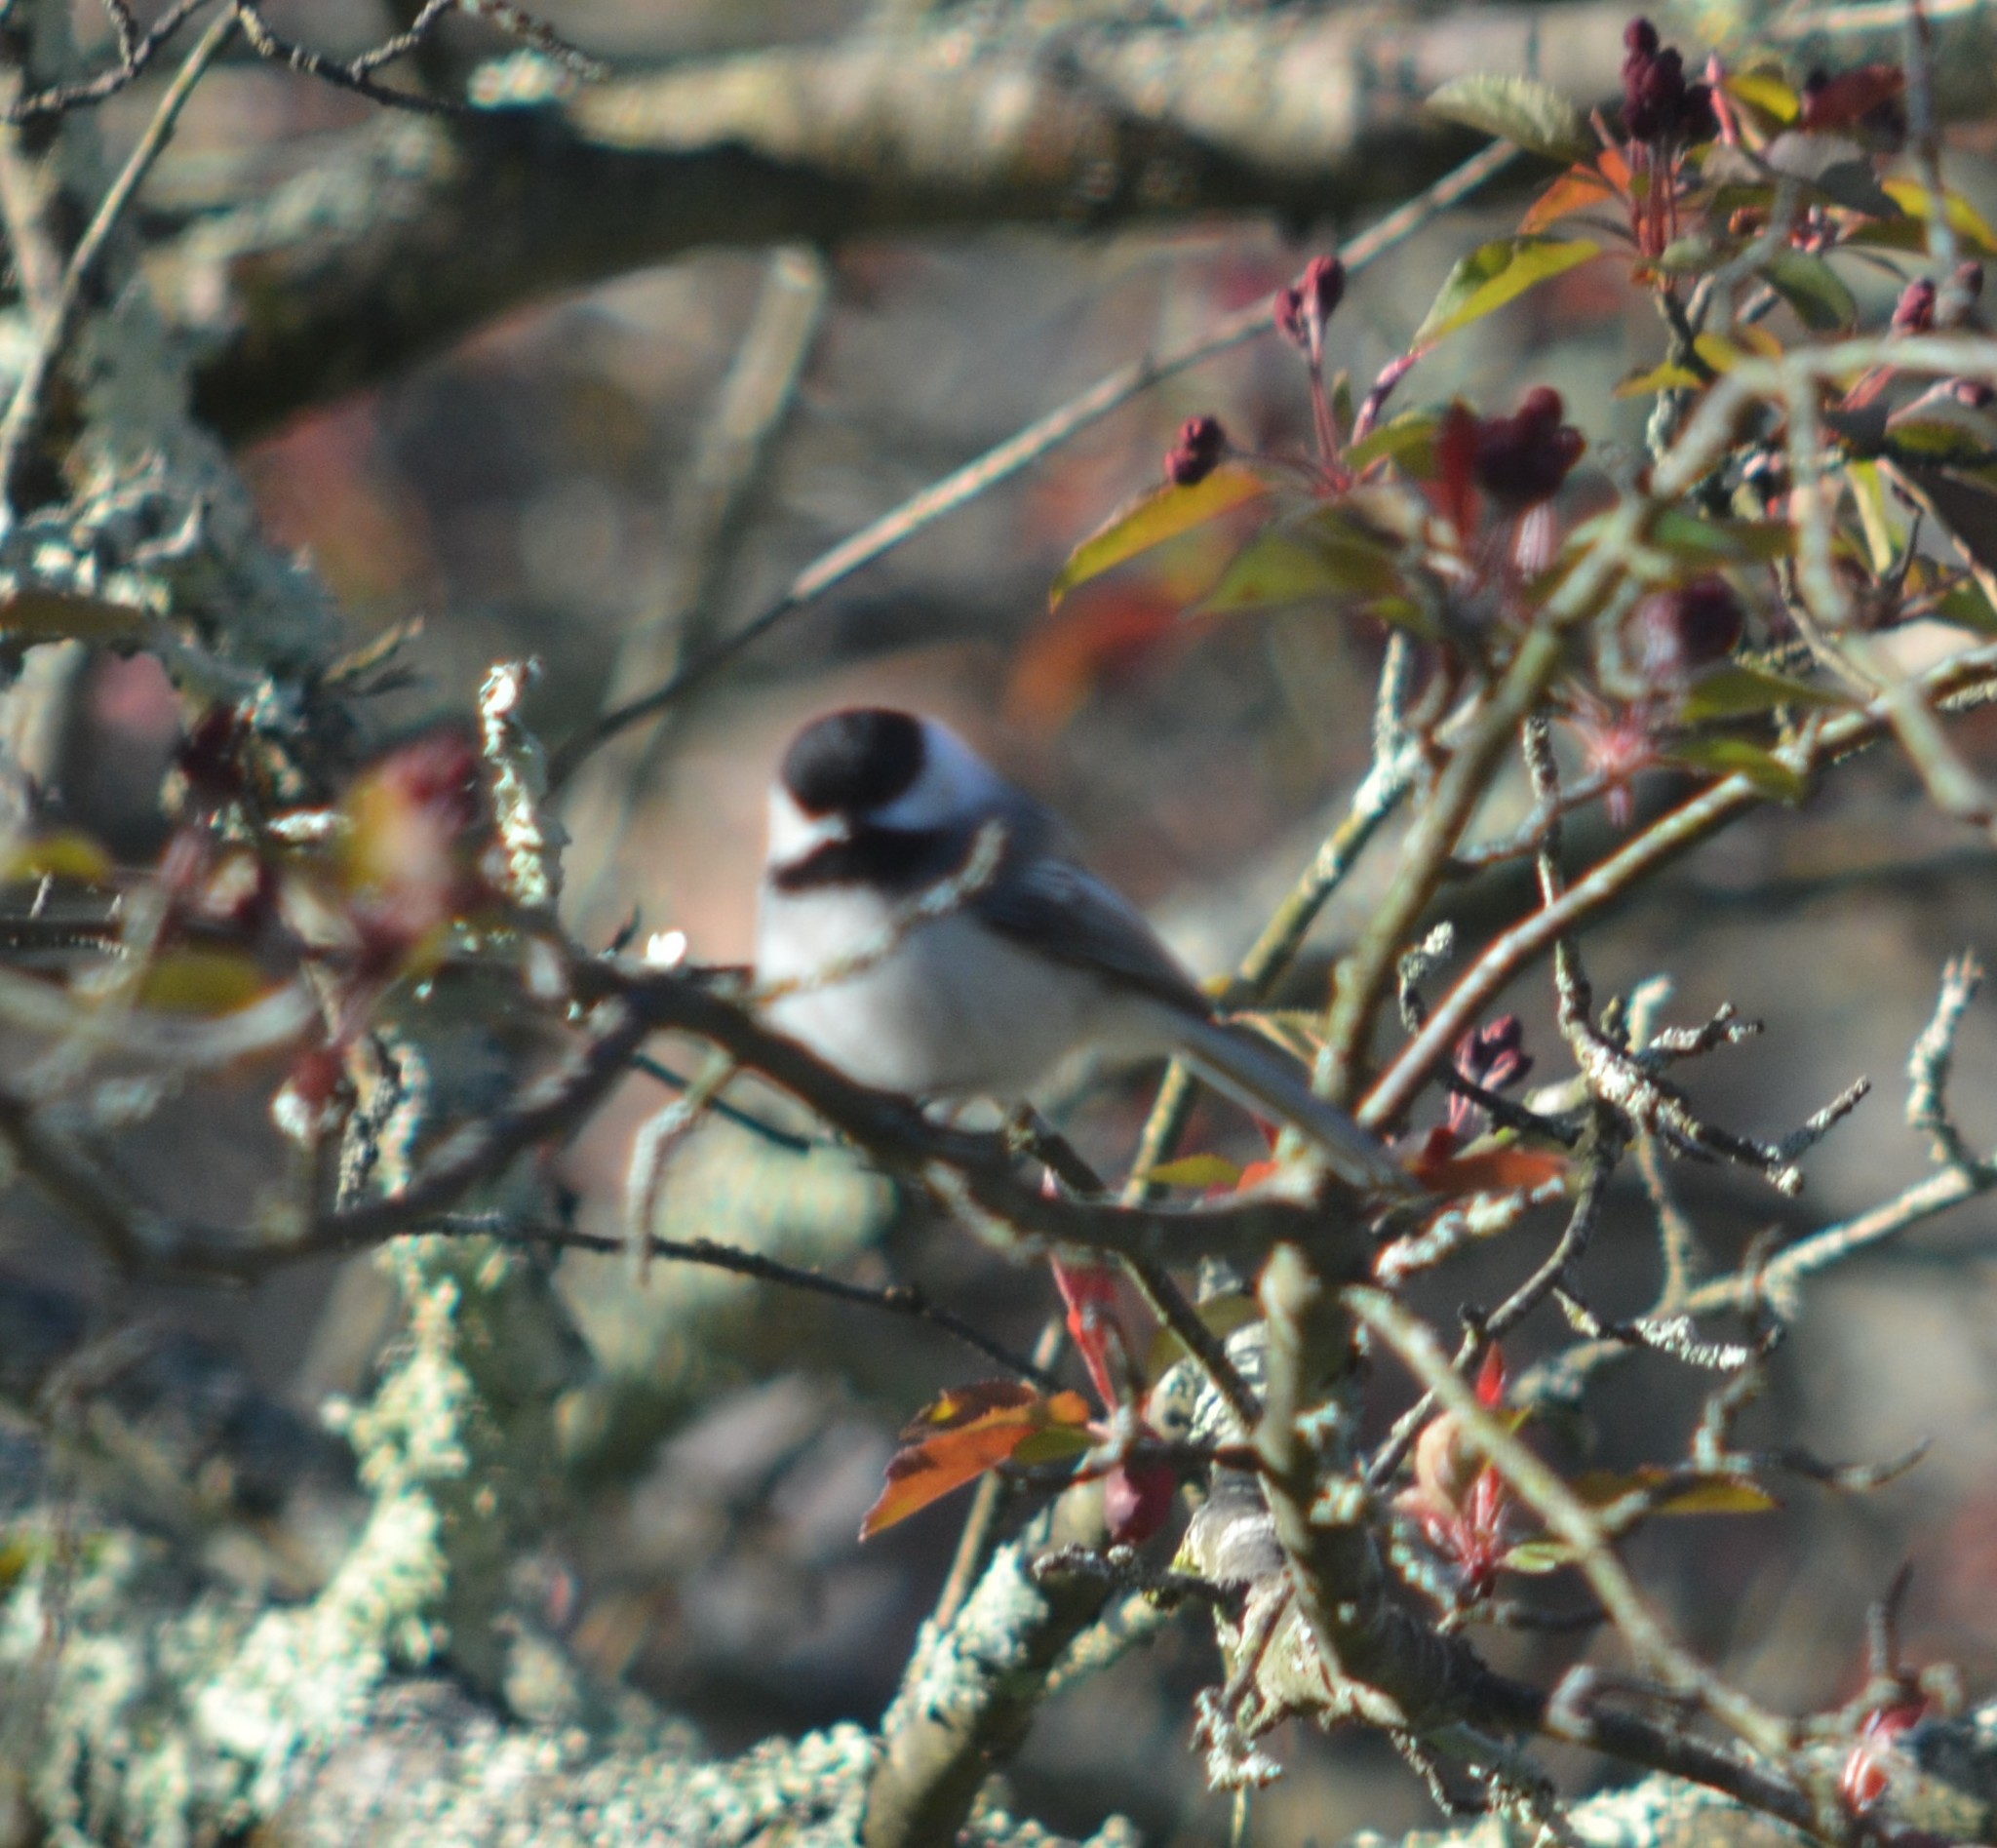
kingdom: Animalia
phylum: Chordata
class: Aves
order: Passeriformes
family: Paridae
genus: Poecile
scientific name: Poecile atricapillus
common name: Black-capped chickadee
